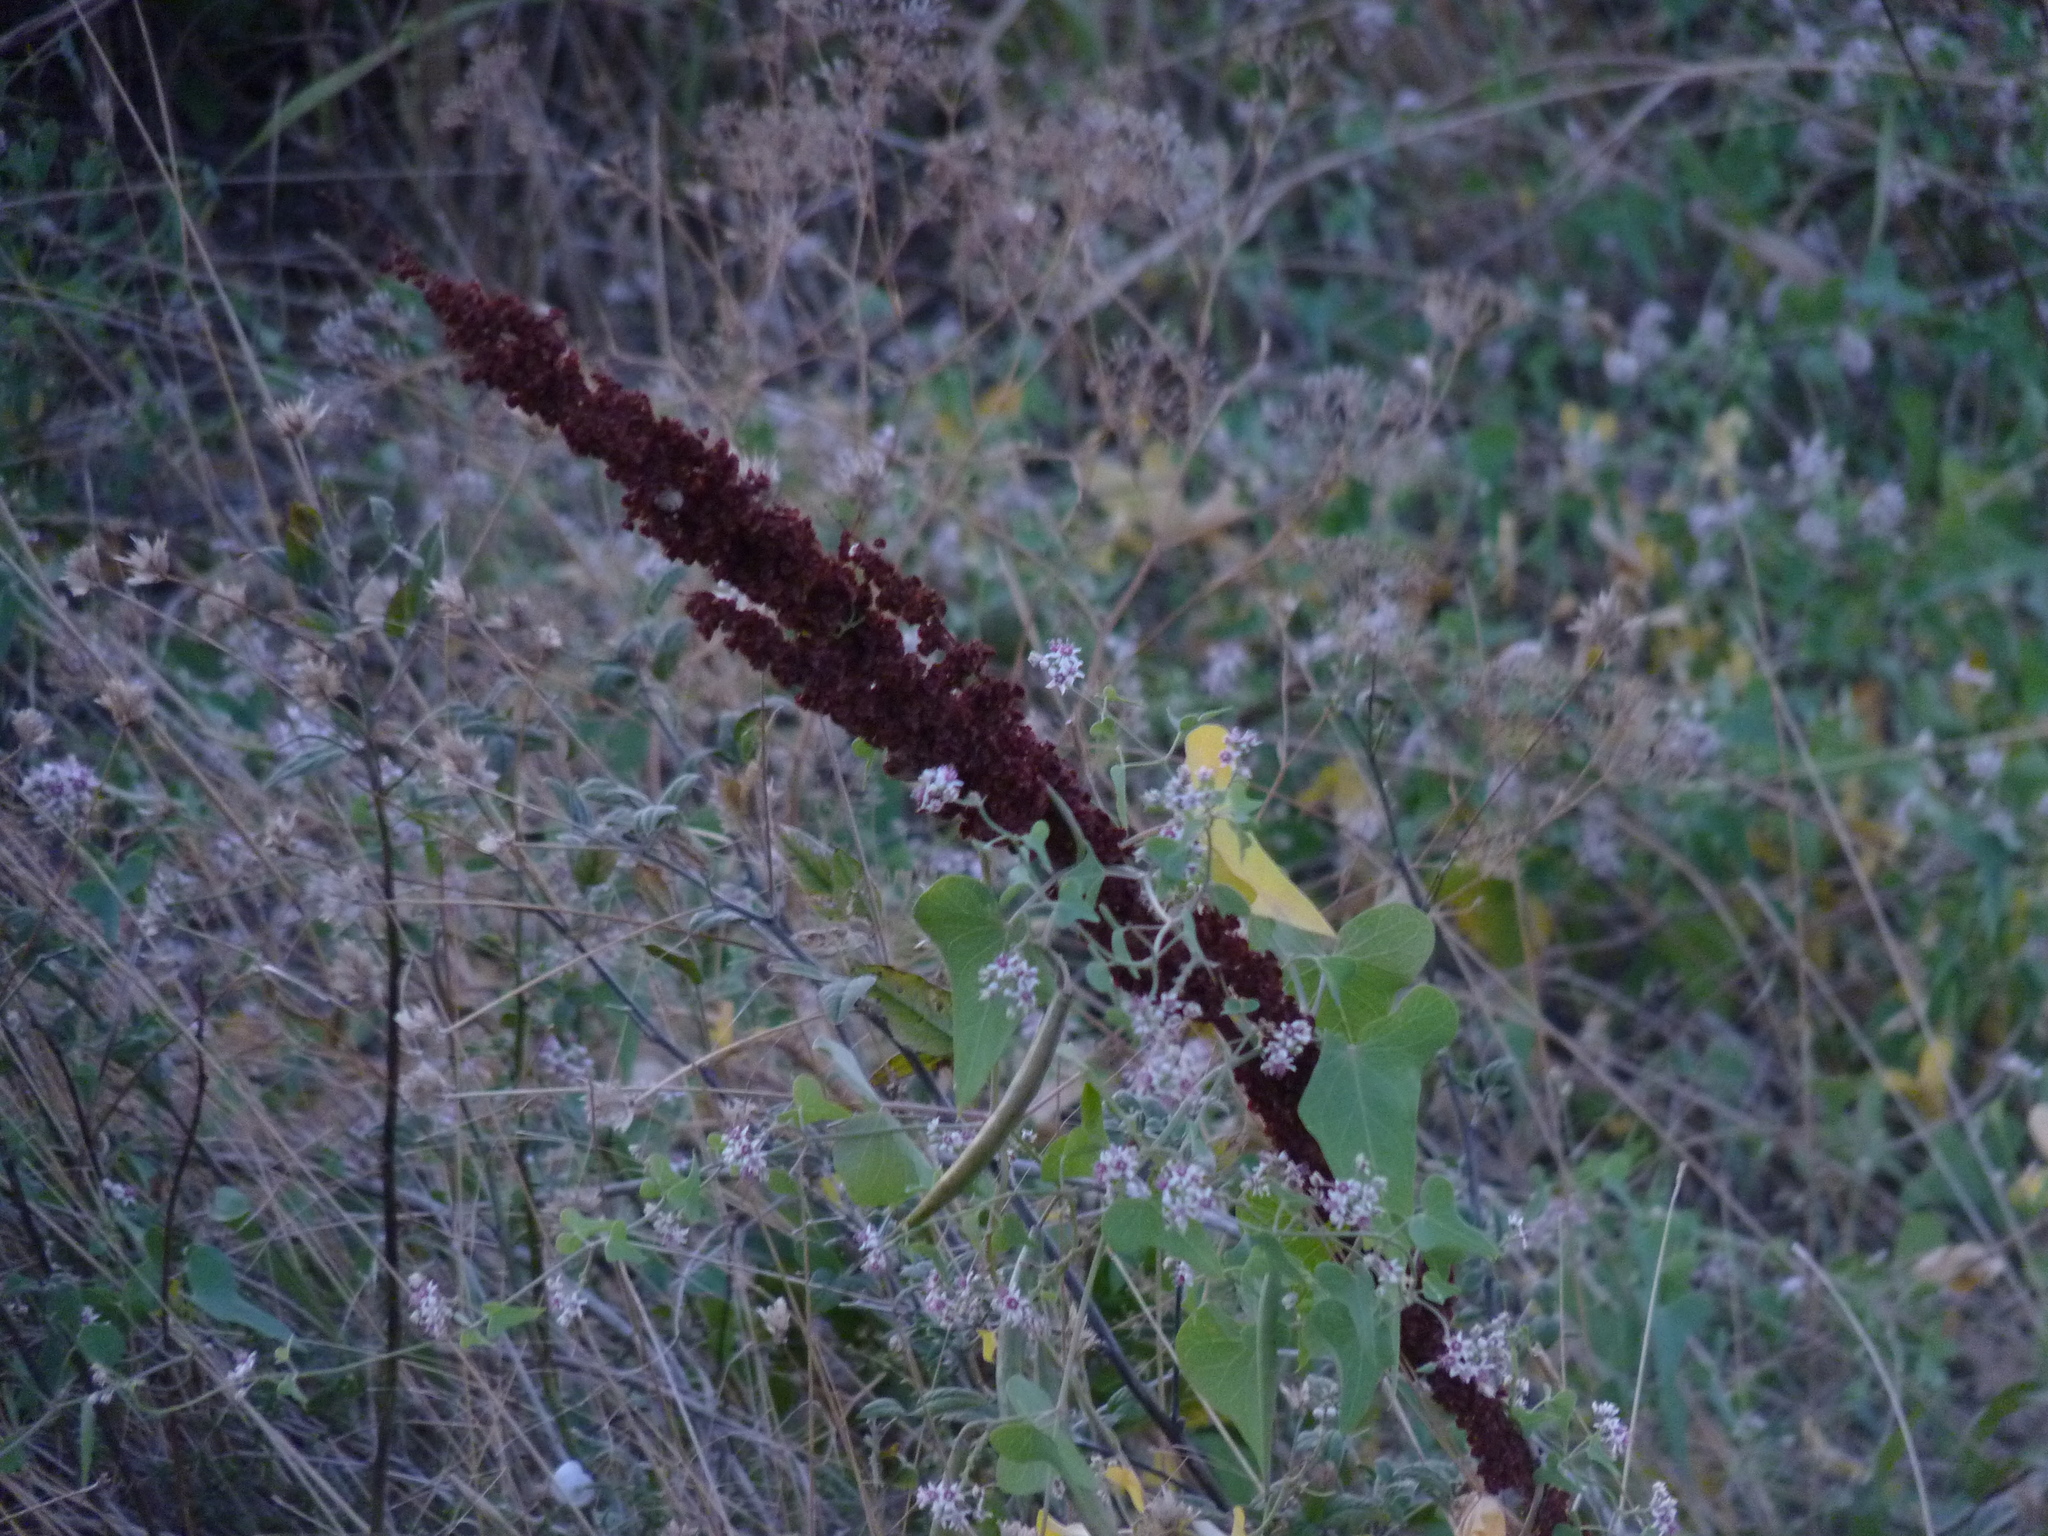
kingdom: Plantae
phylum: Tracheophyta
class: Magnoliopsida
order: Caryophyllales
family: Polygonaceae
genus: Rumex
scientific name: Rumex crispus
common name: Curled dock
